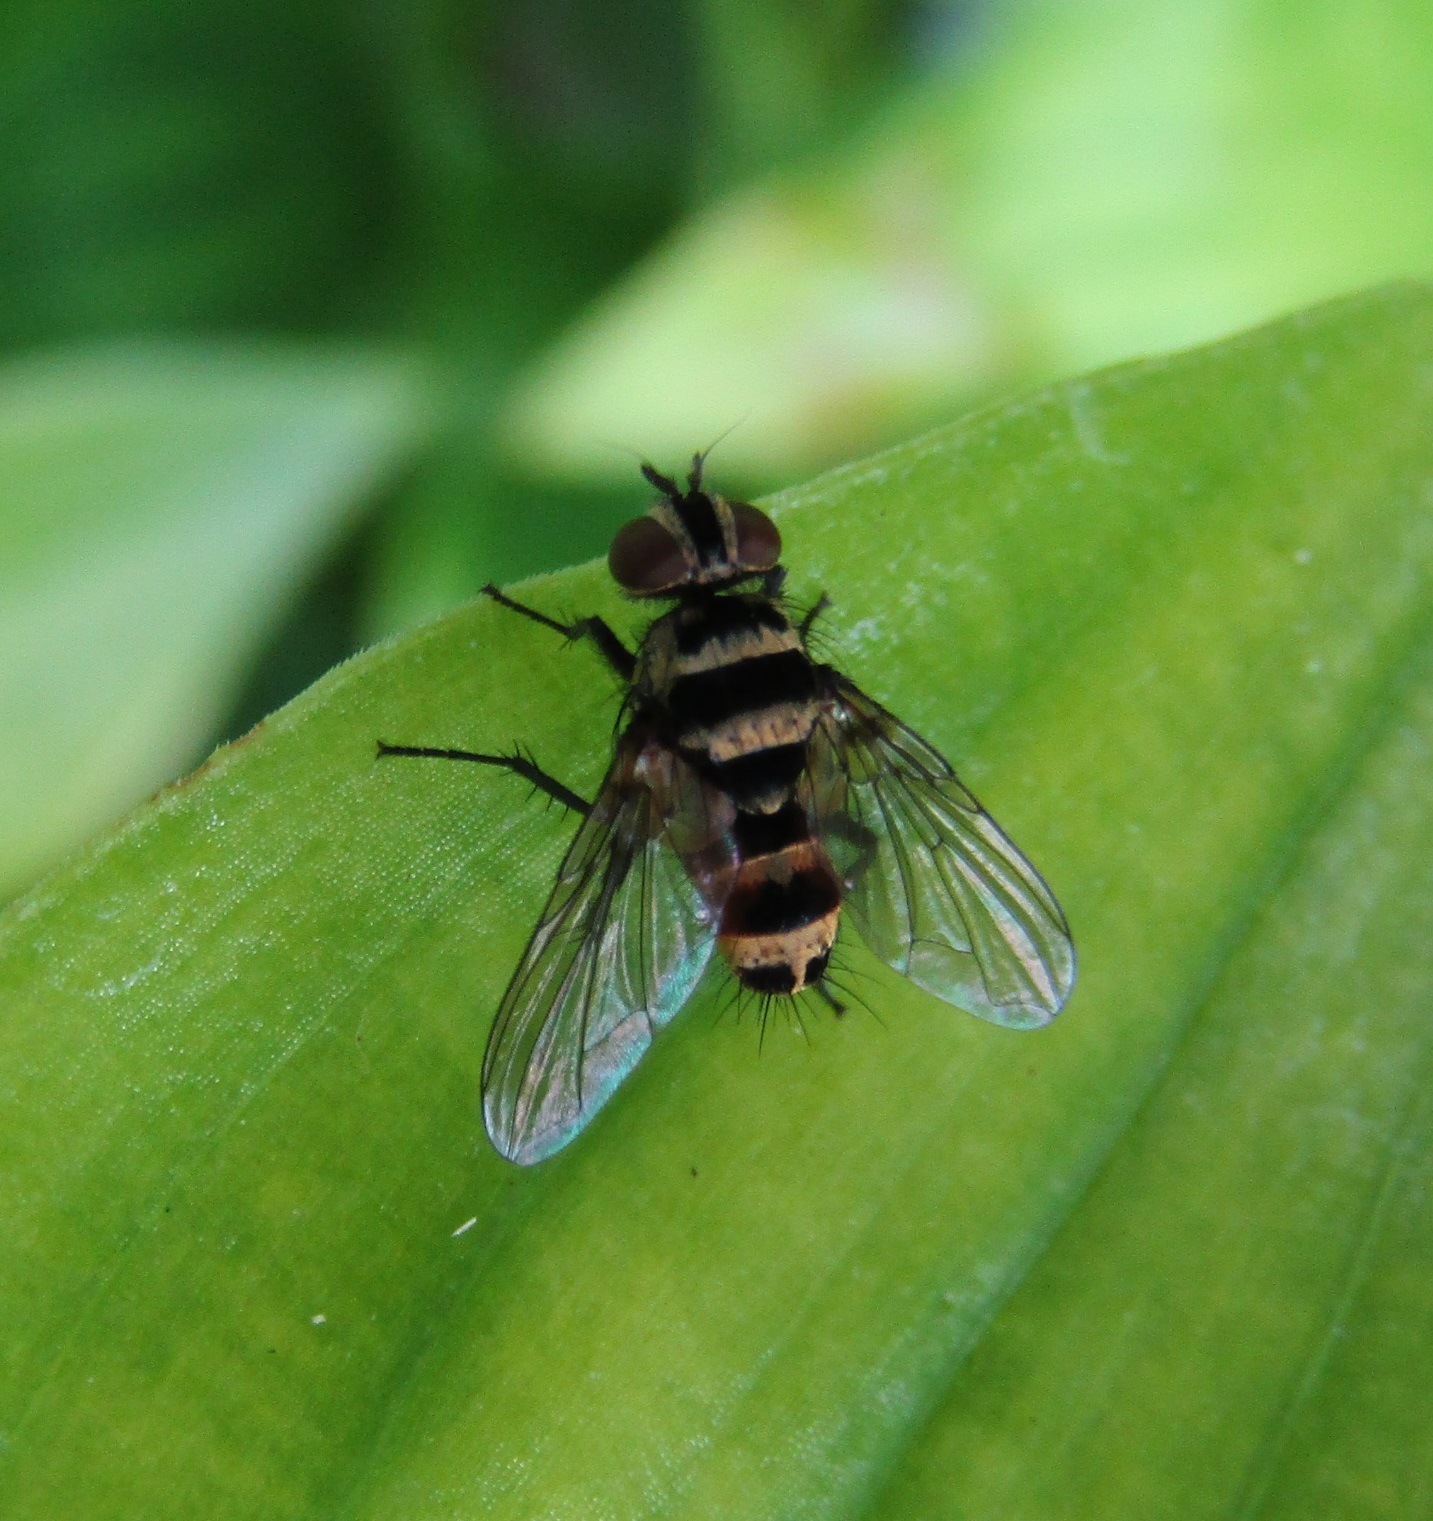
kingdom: Animalia
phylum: Arthropoda
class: Insecta
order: Diptera
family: Tachinidae
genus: Trigonospila
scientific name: Trigonospila brevifacies
